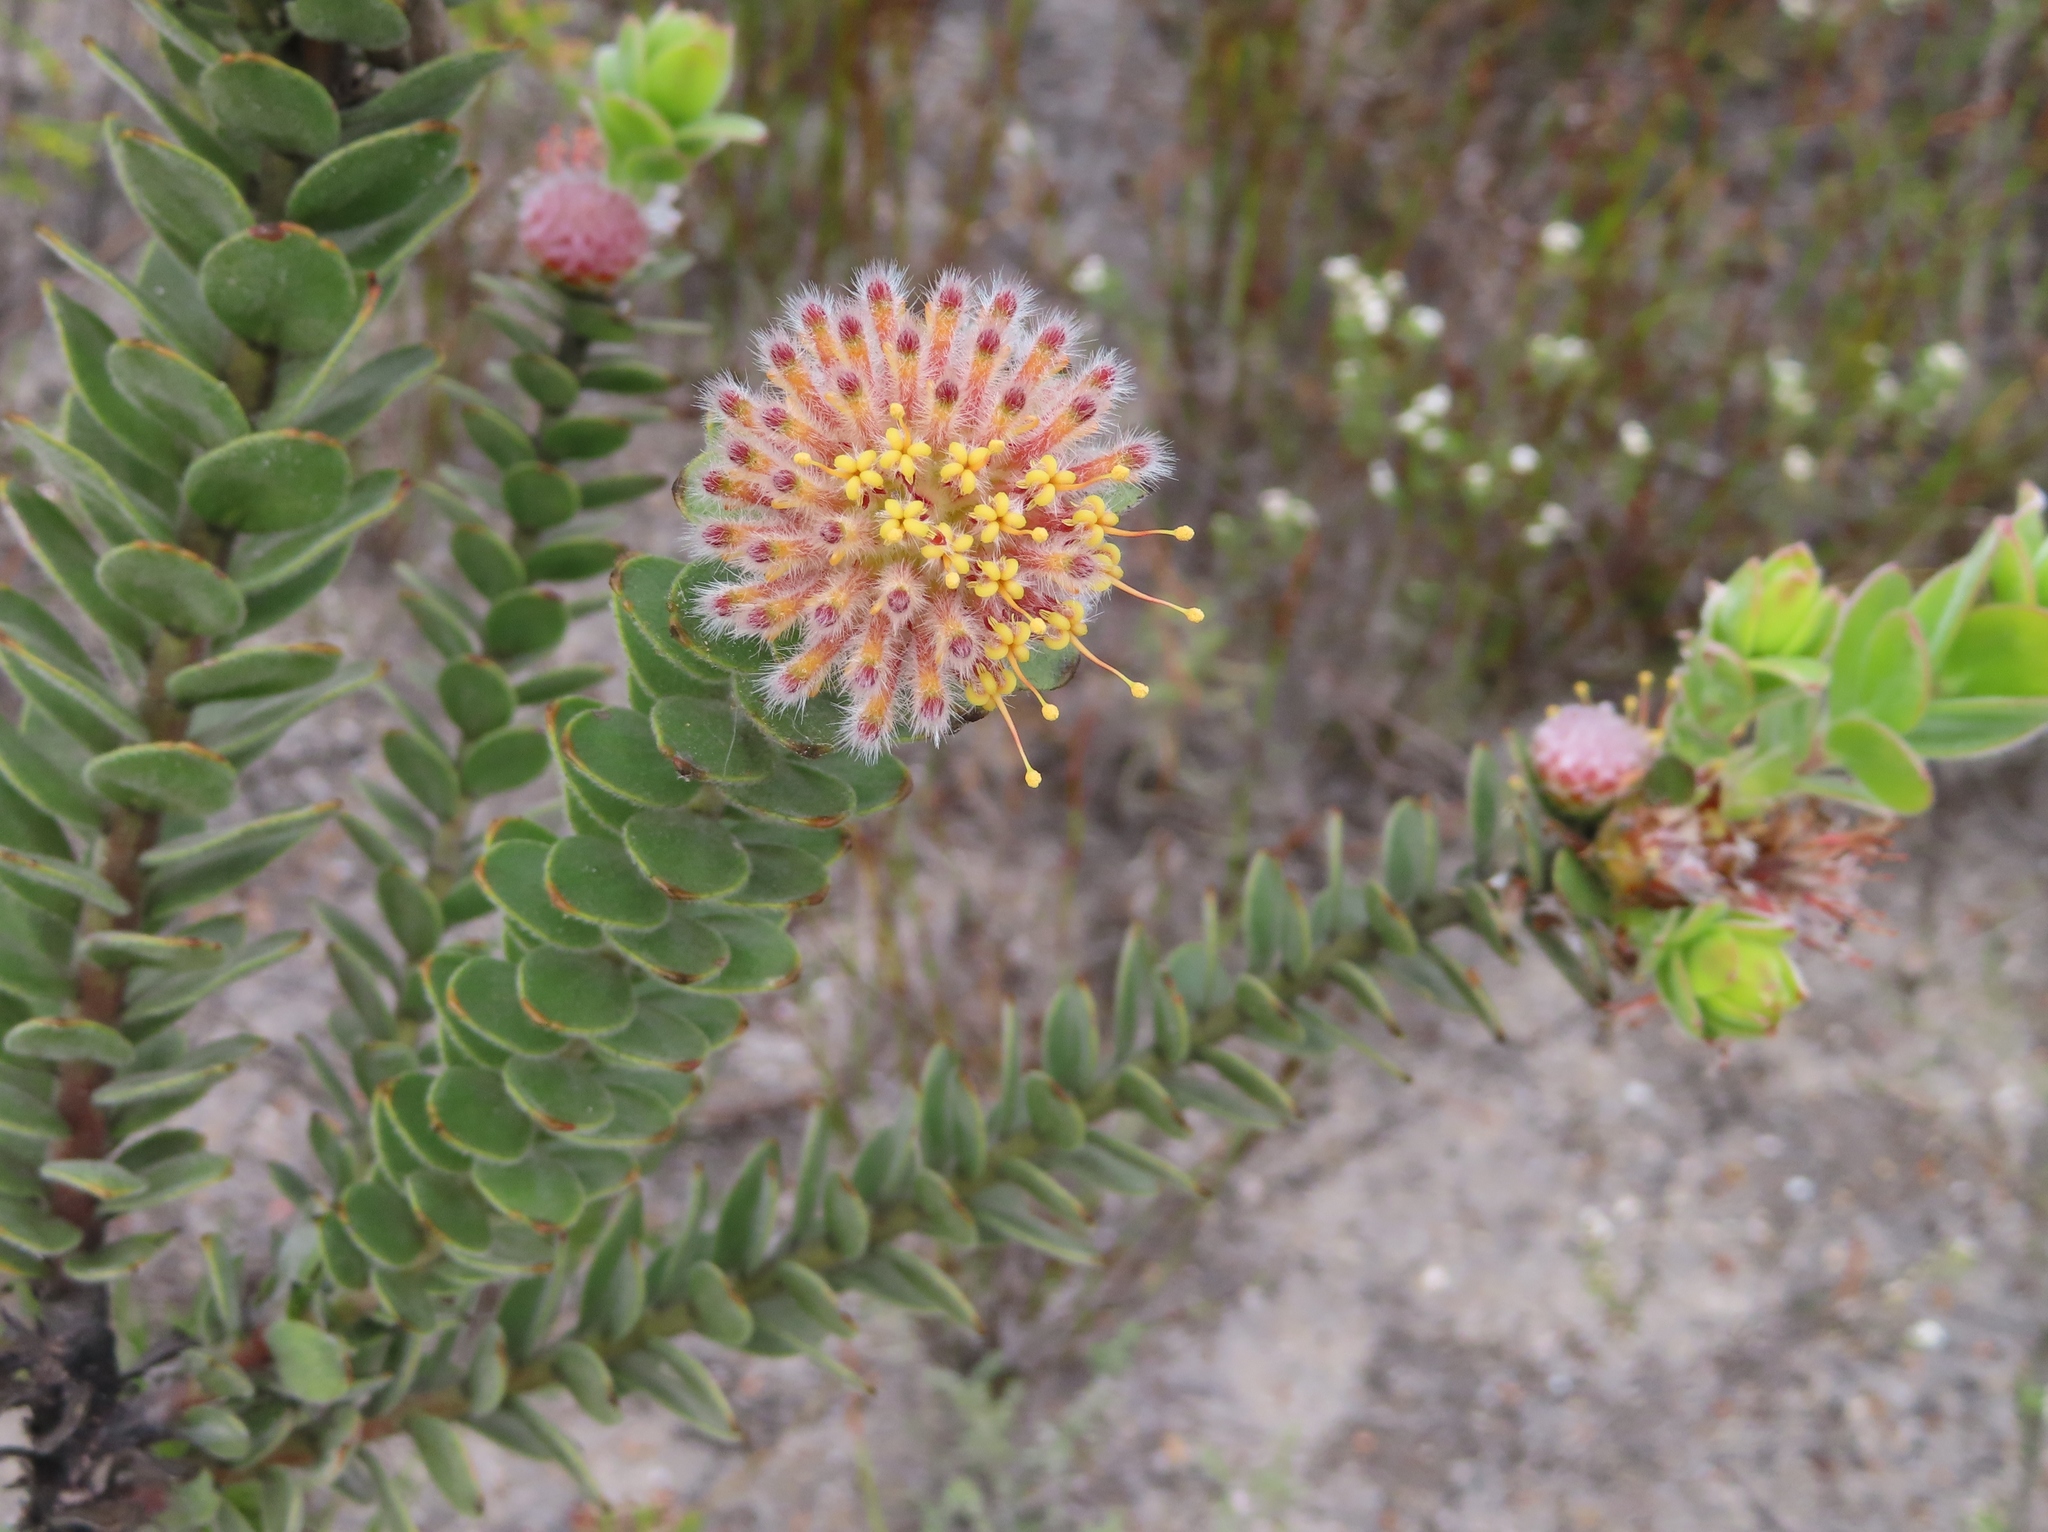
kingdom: Plantae
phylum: Tracheophyta
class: Magnoliopsida
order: Proteales
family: Proteaceae
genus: Leucospermum
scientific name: Leucospermum truncatulum
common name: Oval-leaf pincushion
